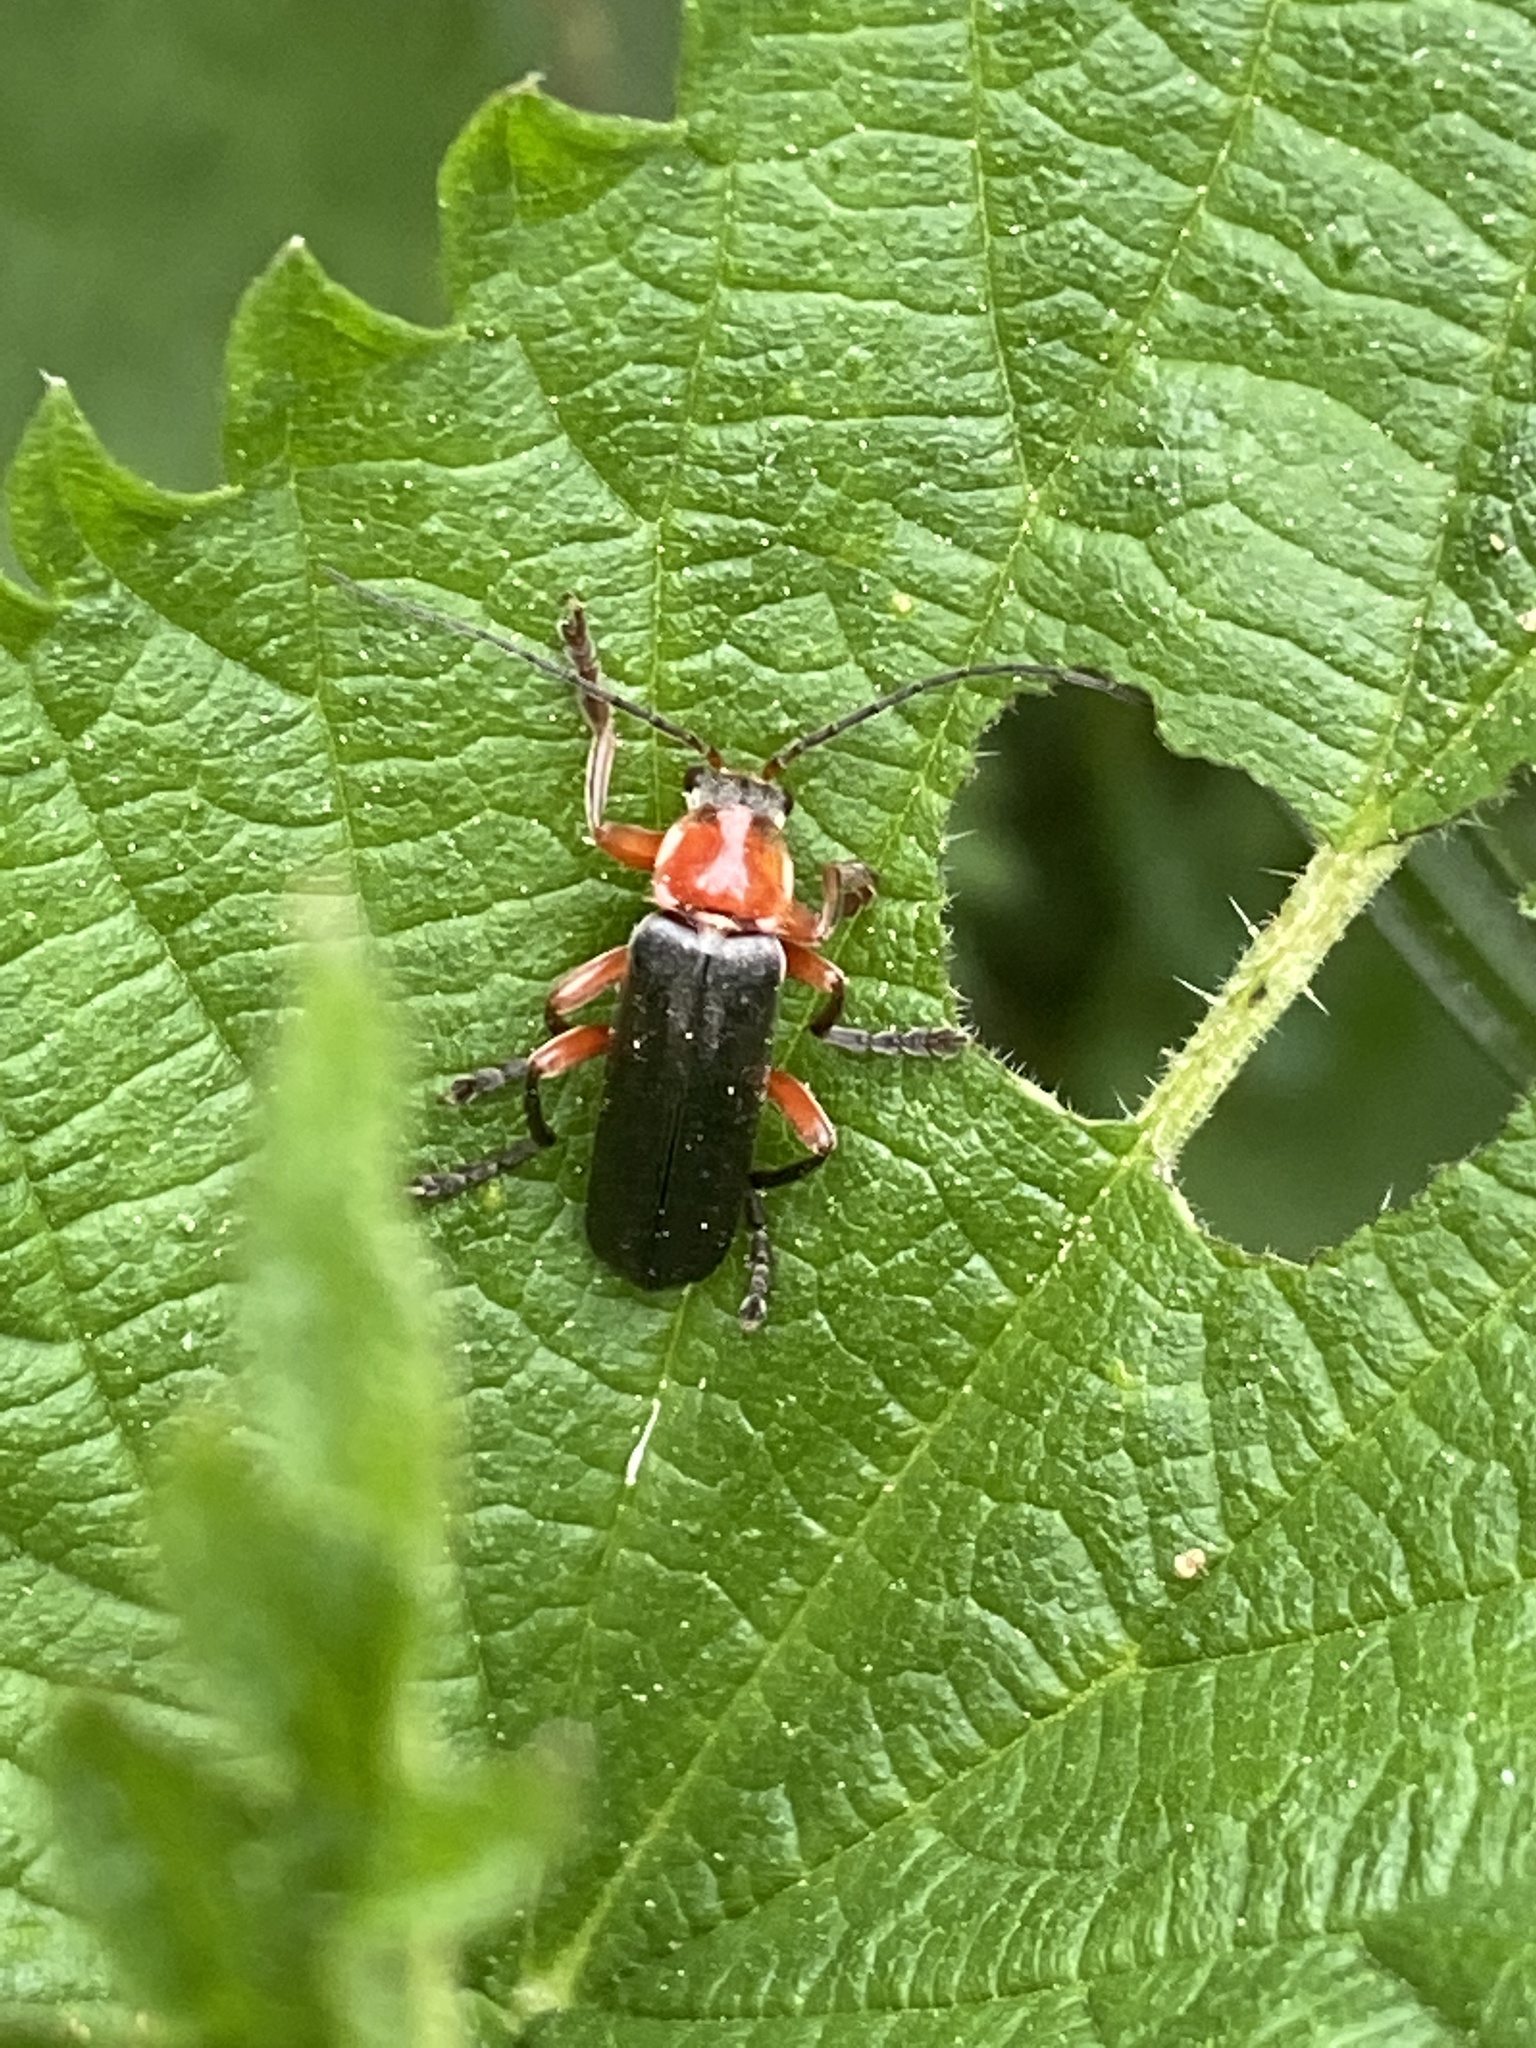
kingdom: Animalia
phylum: Arthropoda
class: Insecta
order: Coleoptera
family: Cantharidae
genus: Cantharis
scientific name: Cantharis pellucida
